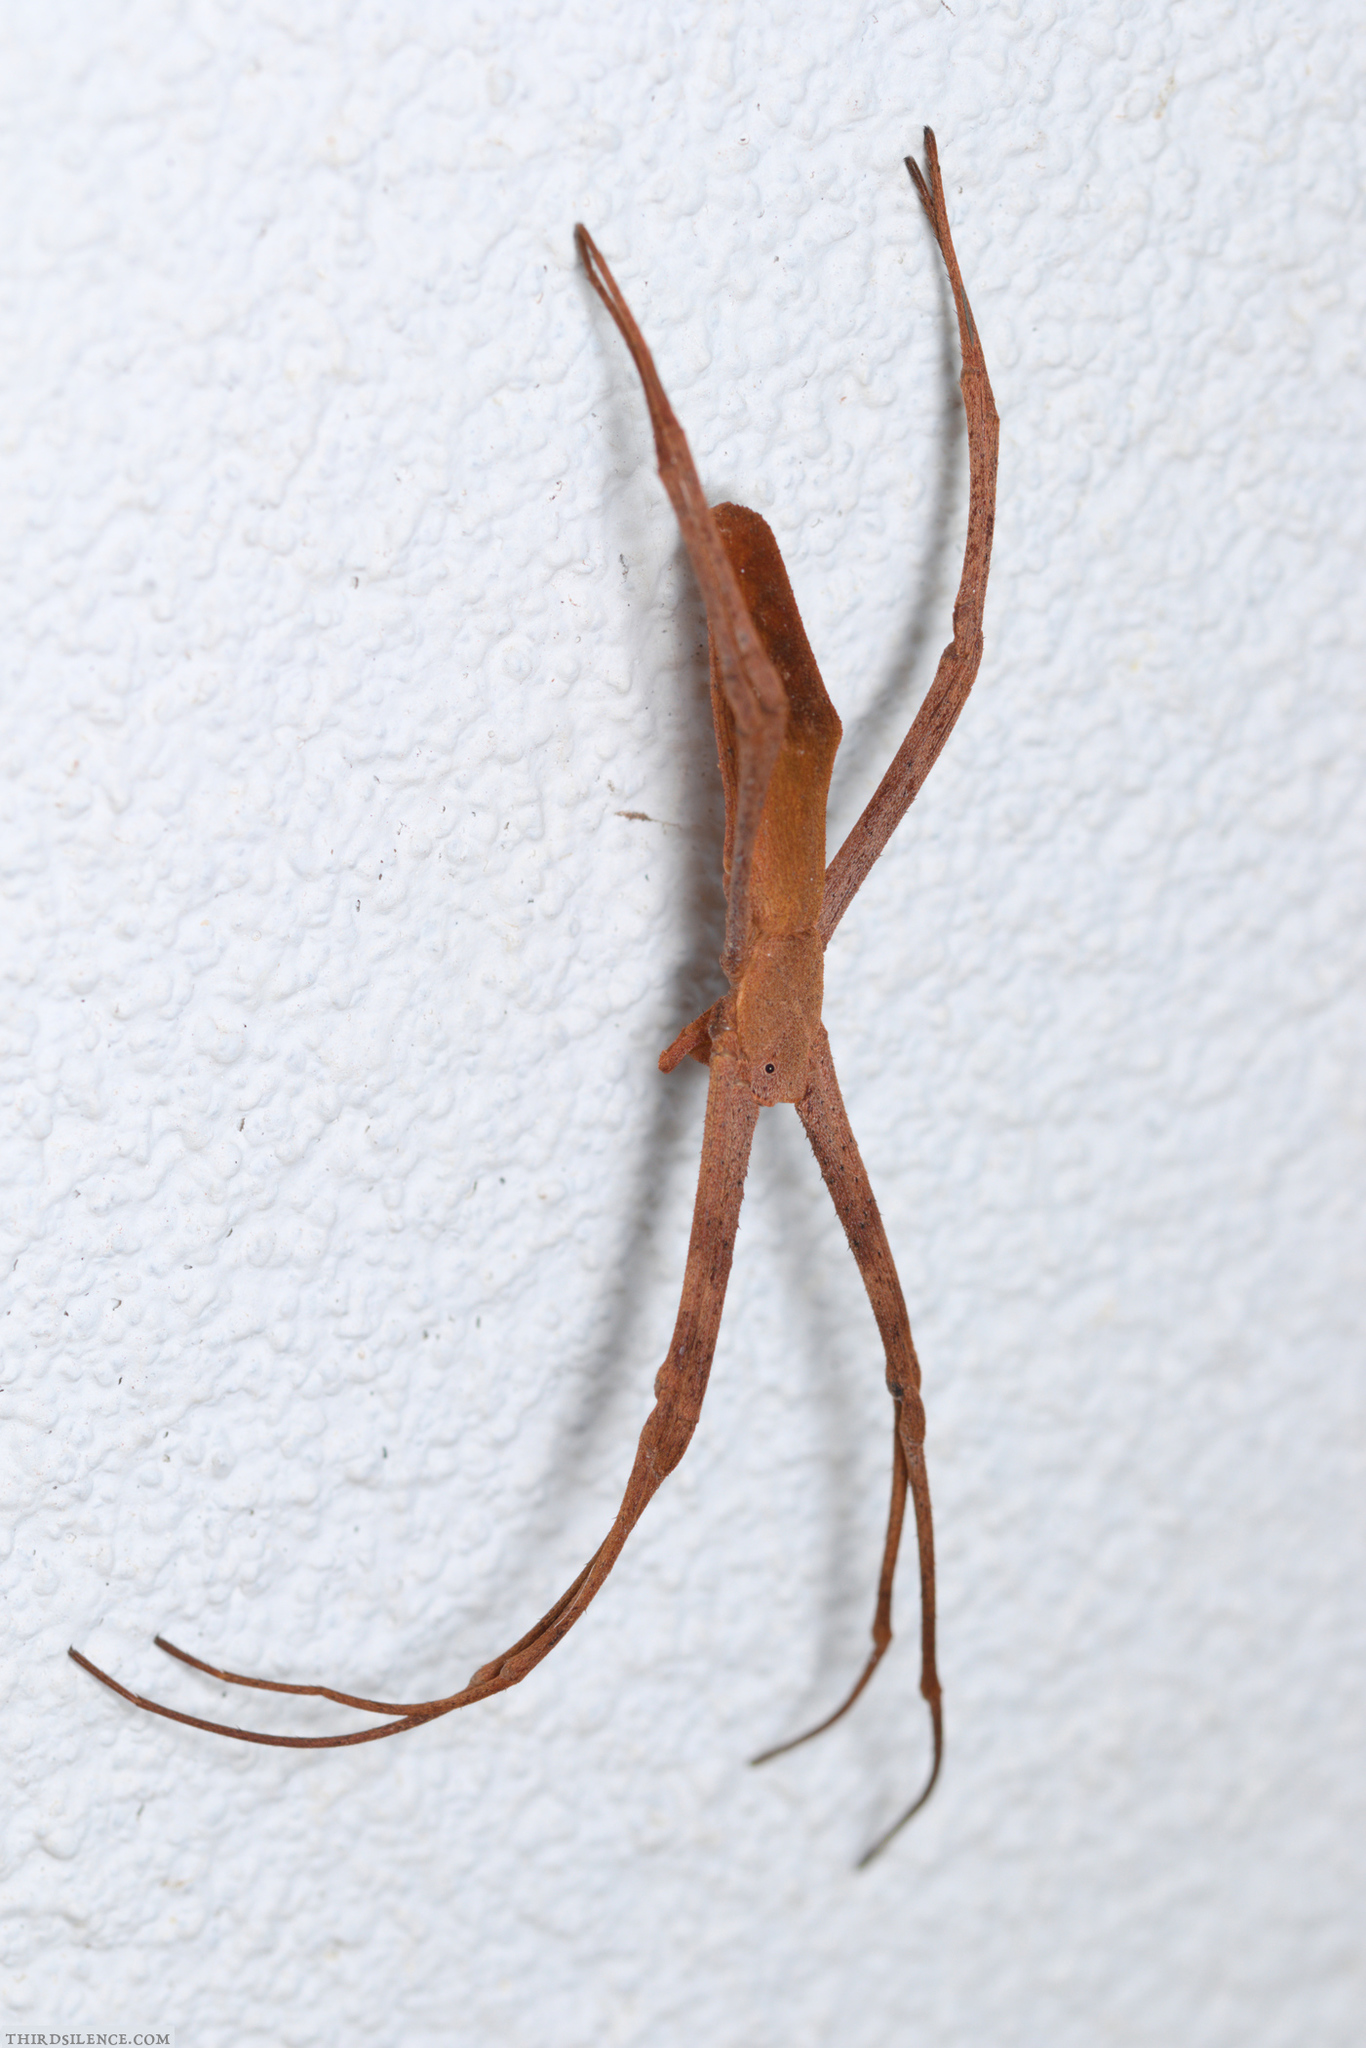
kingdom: Animalia
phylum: Arthropoda
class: Arachnida
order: Araneae
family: Deinopidae
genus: Deinopis
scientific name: Deinopis subrufa
